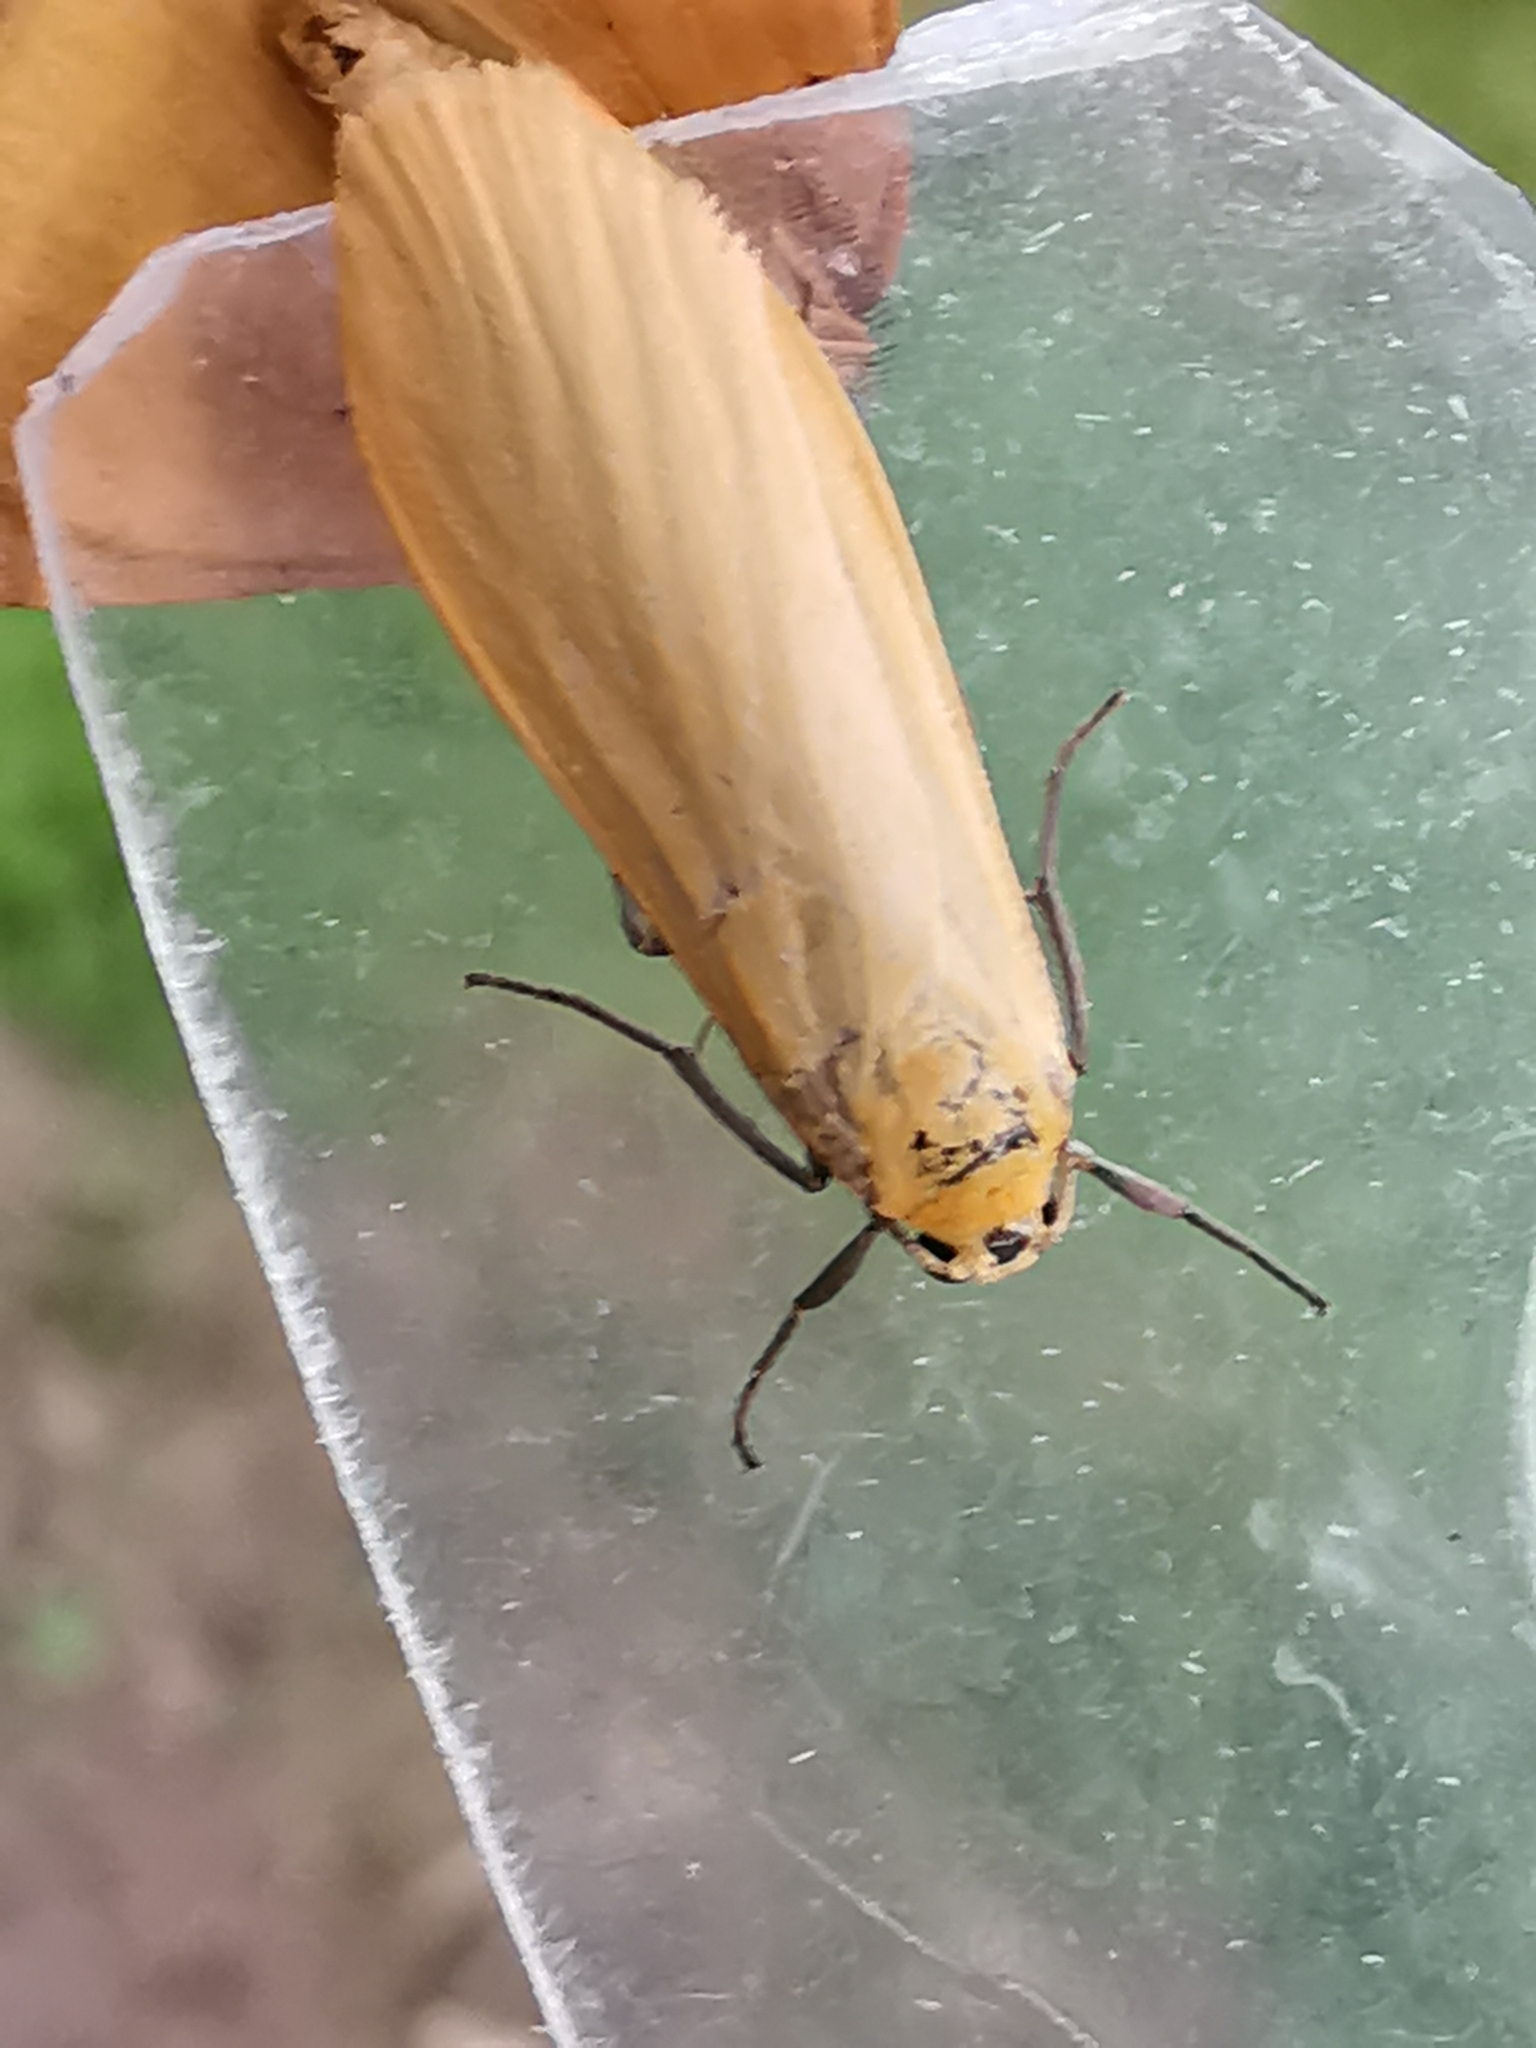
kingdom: Animalia
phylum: Arthropoda
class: Insecta
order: Lepidoptera
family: Erebidae
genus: Wittia
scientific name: Wittia sororcula
